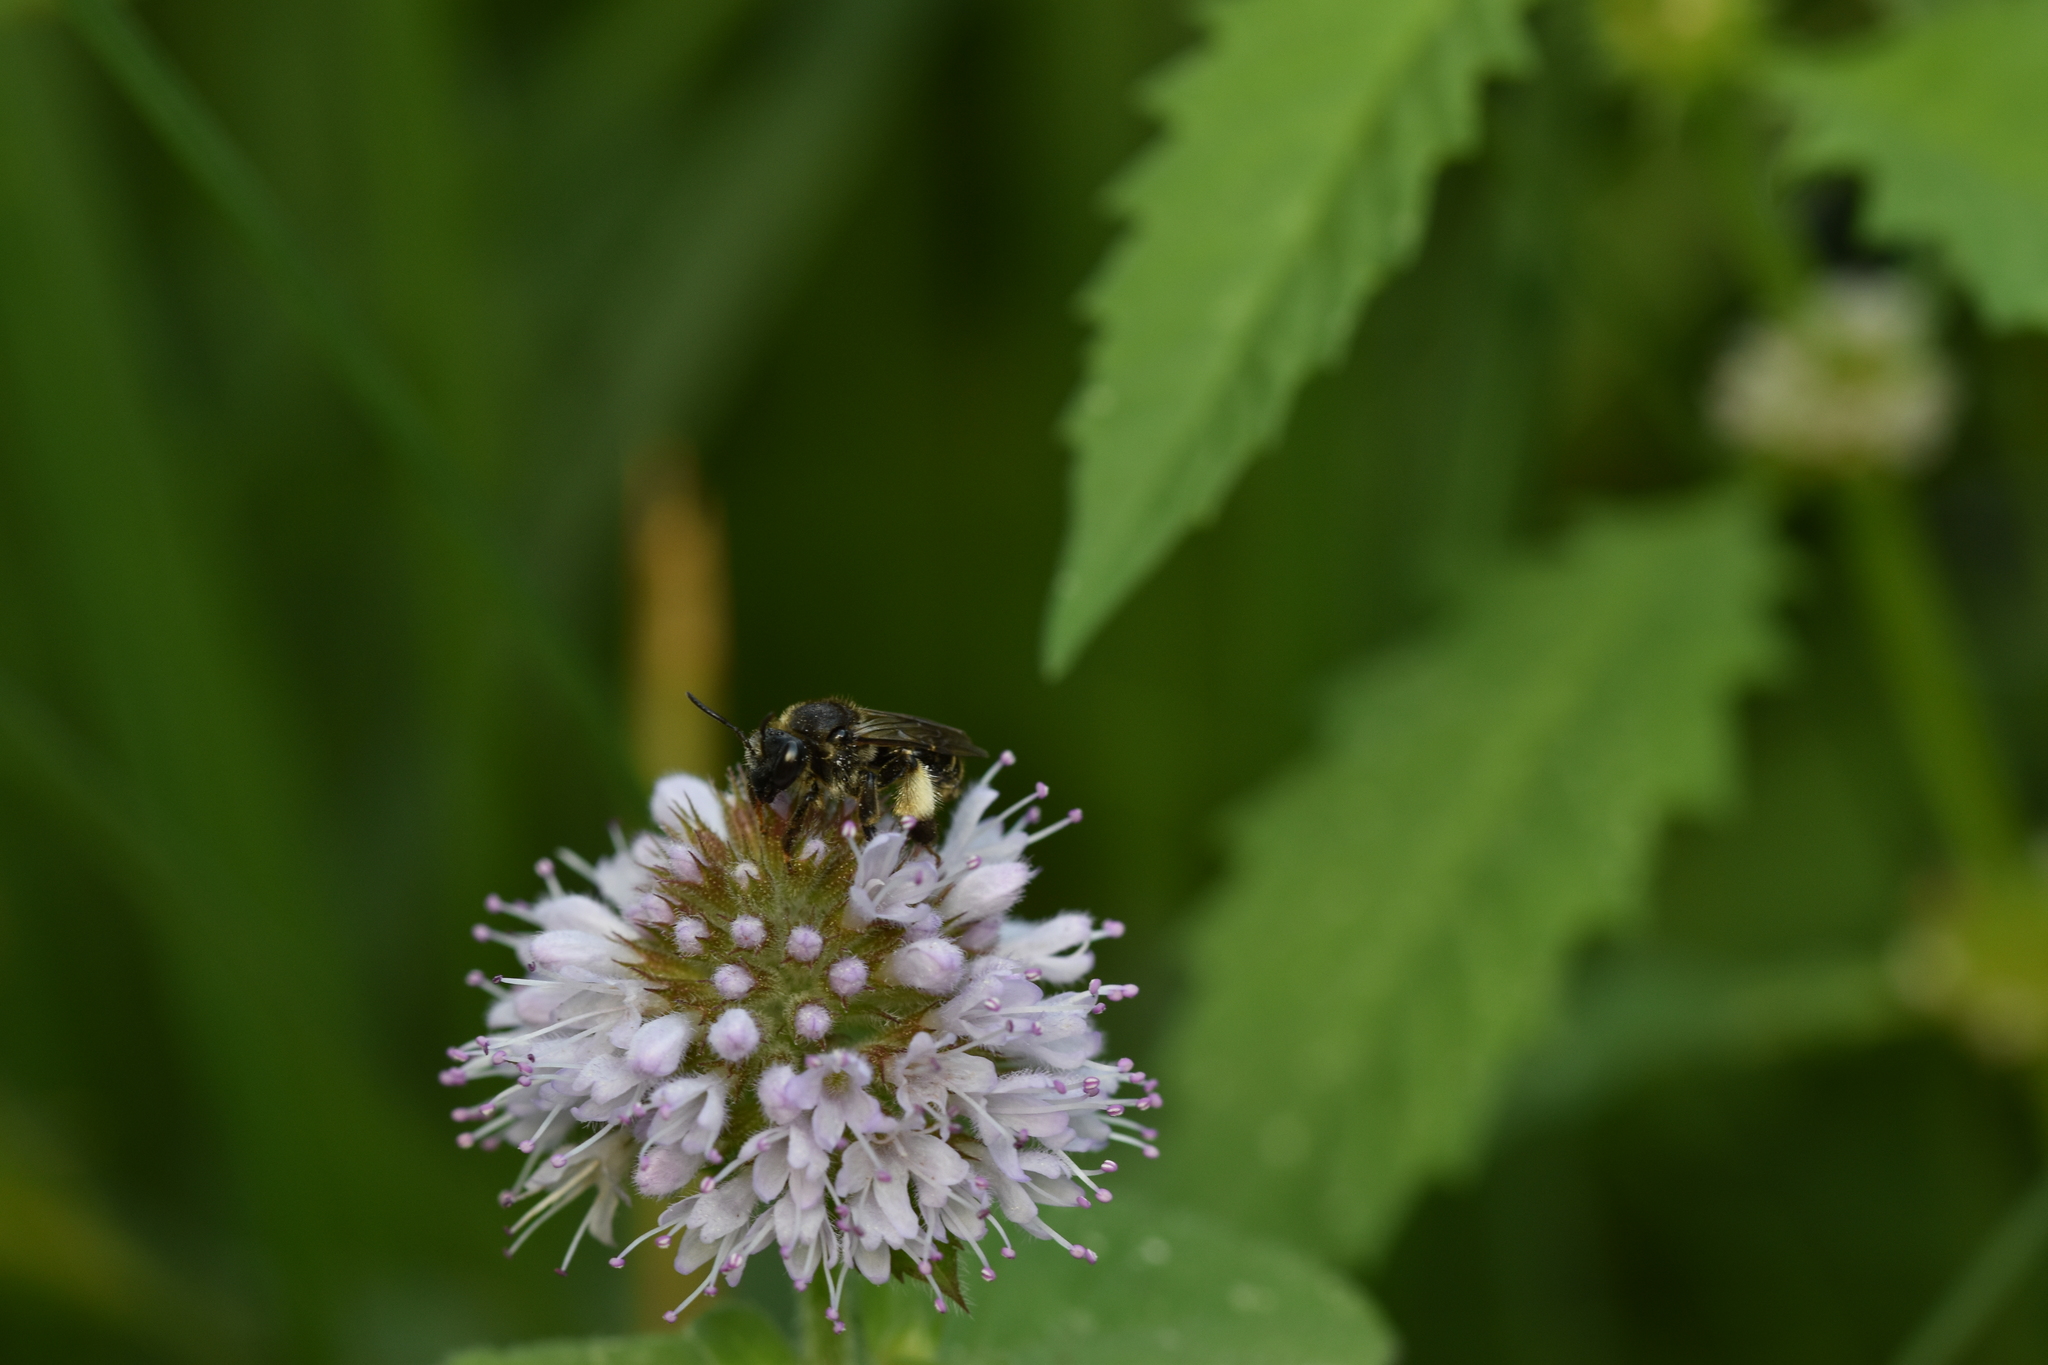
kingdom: Animalia
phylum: Arthropoda
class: Insecta
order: Hymenoptera
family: Melittidae
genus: Macropis
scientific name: Macropis europaea
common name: Yellow loosestrife bee
